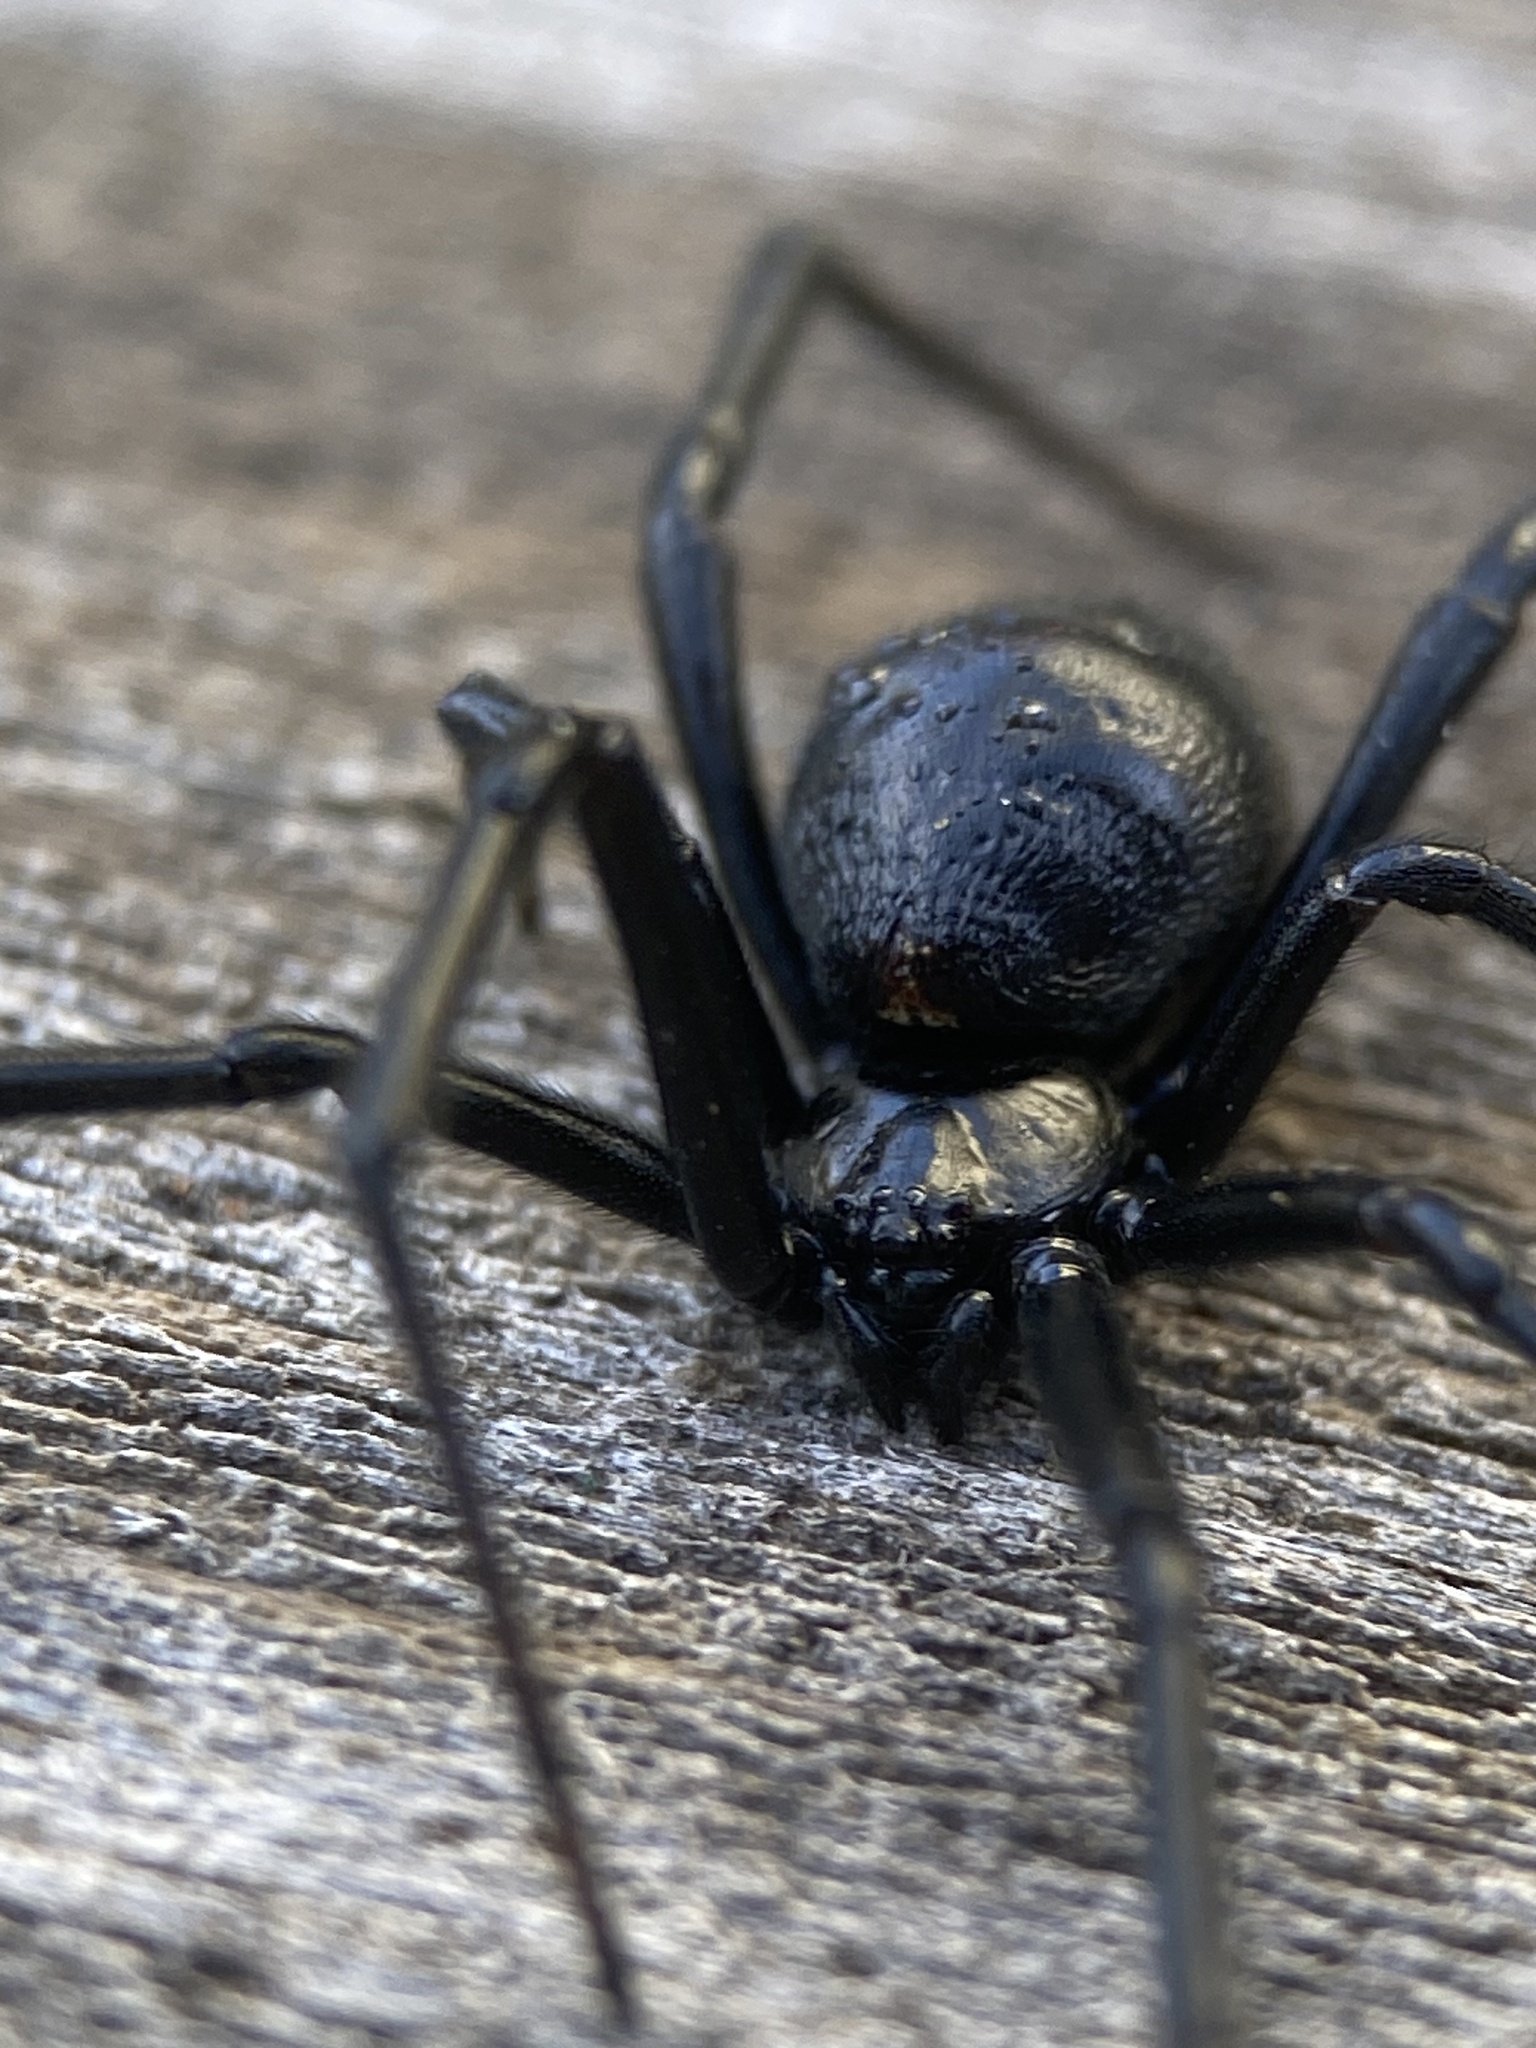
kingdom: Animalia
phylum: Arthropoda
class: Arachnida
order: Araneae
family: Theridiidae
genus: Latrodectus
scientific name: Latrodectus hesperus
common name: Western black widow
